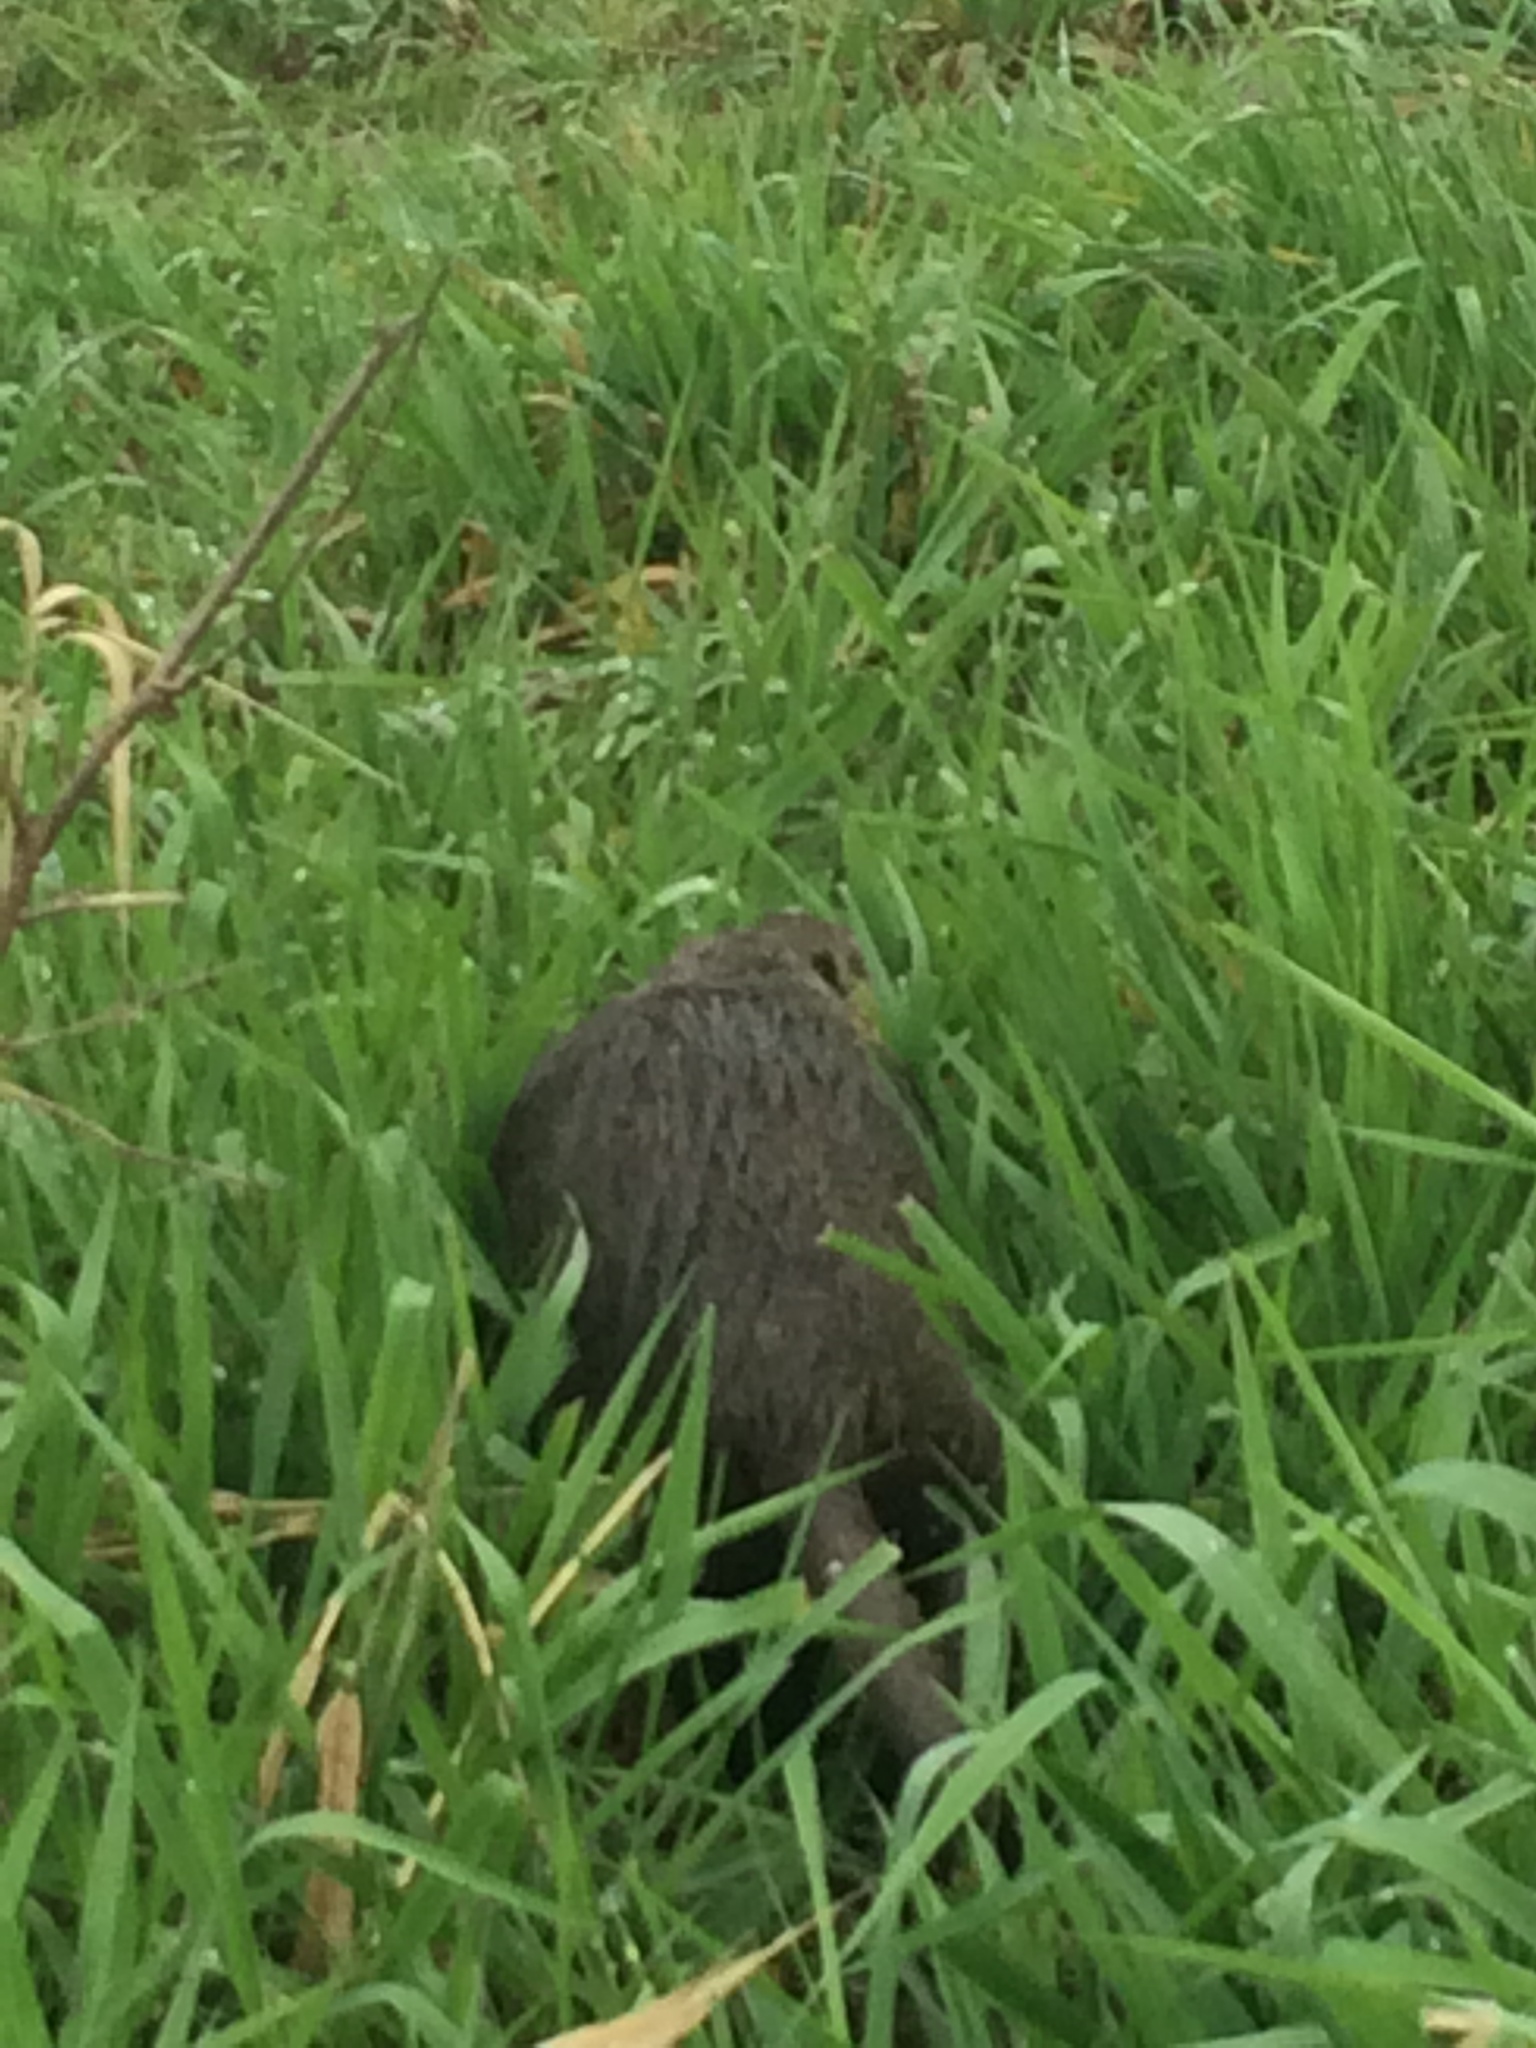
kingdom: Animalia
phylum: Chordata
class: Mammalia
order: Rodentia
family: Myocastoridae
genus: Myocastor
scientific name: Myocastor coypus
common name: Coypu
